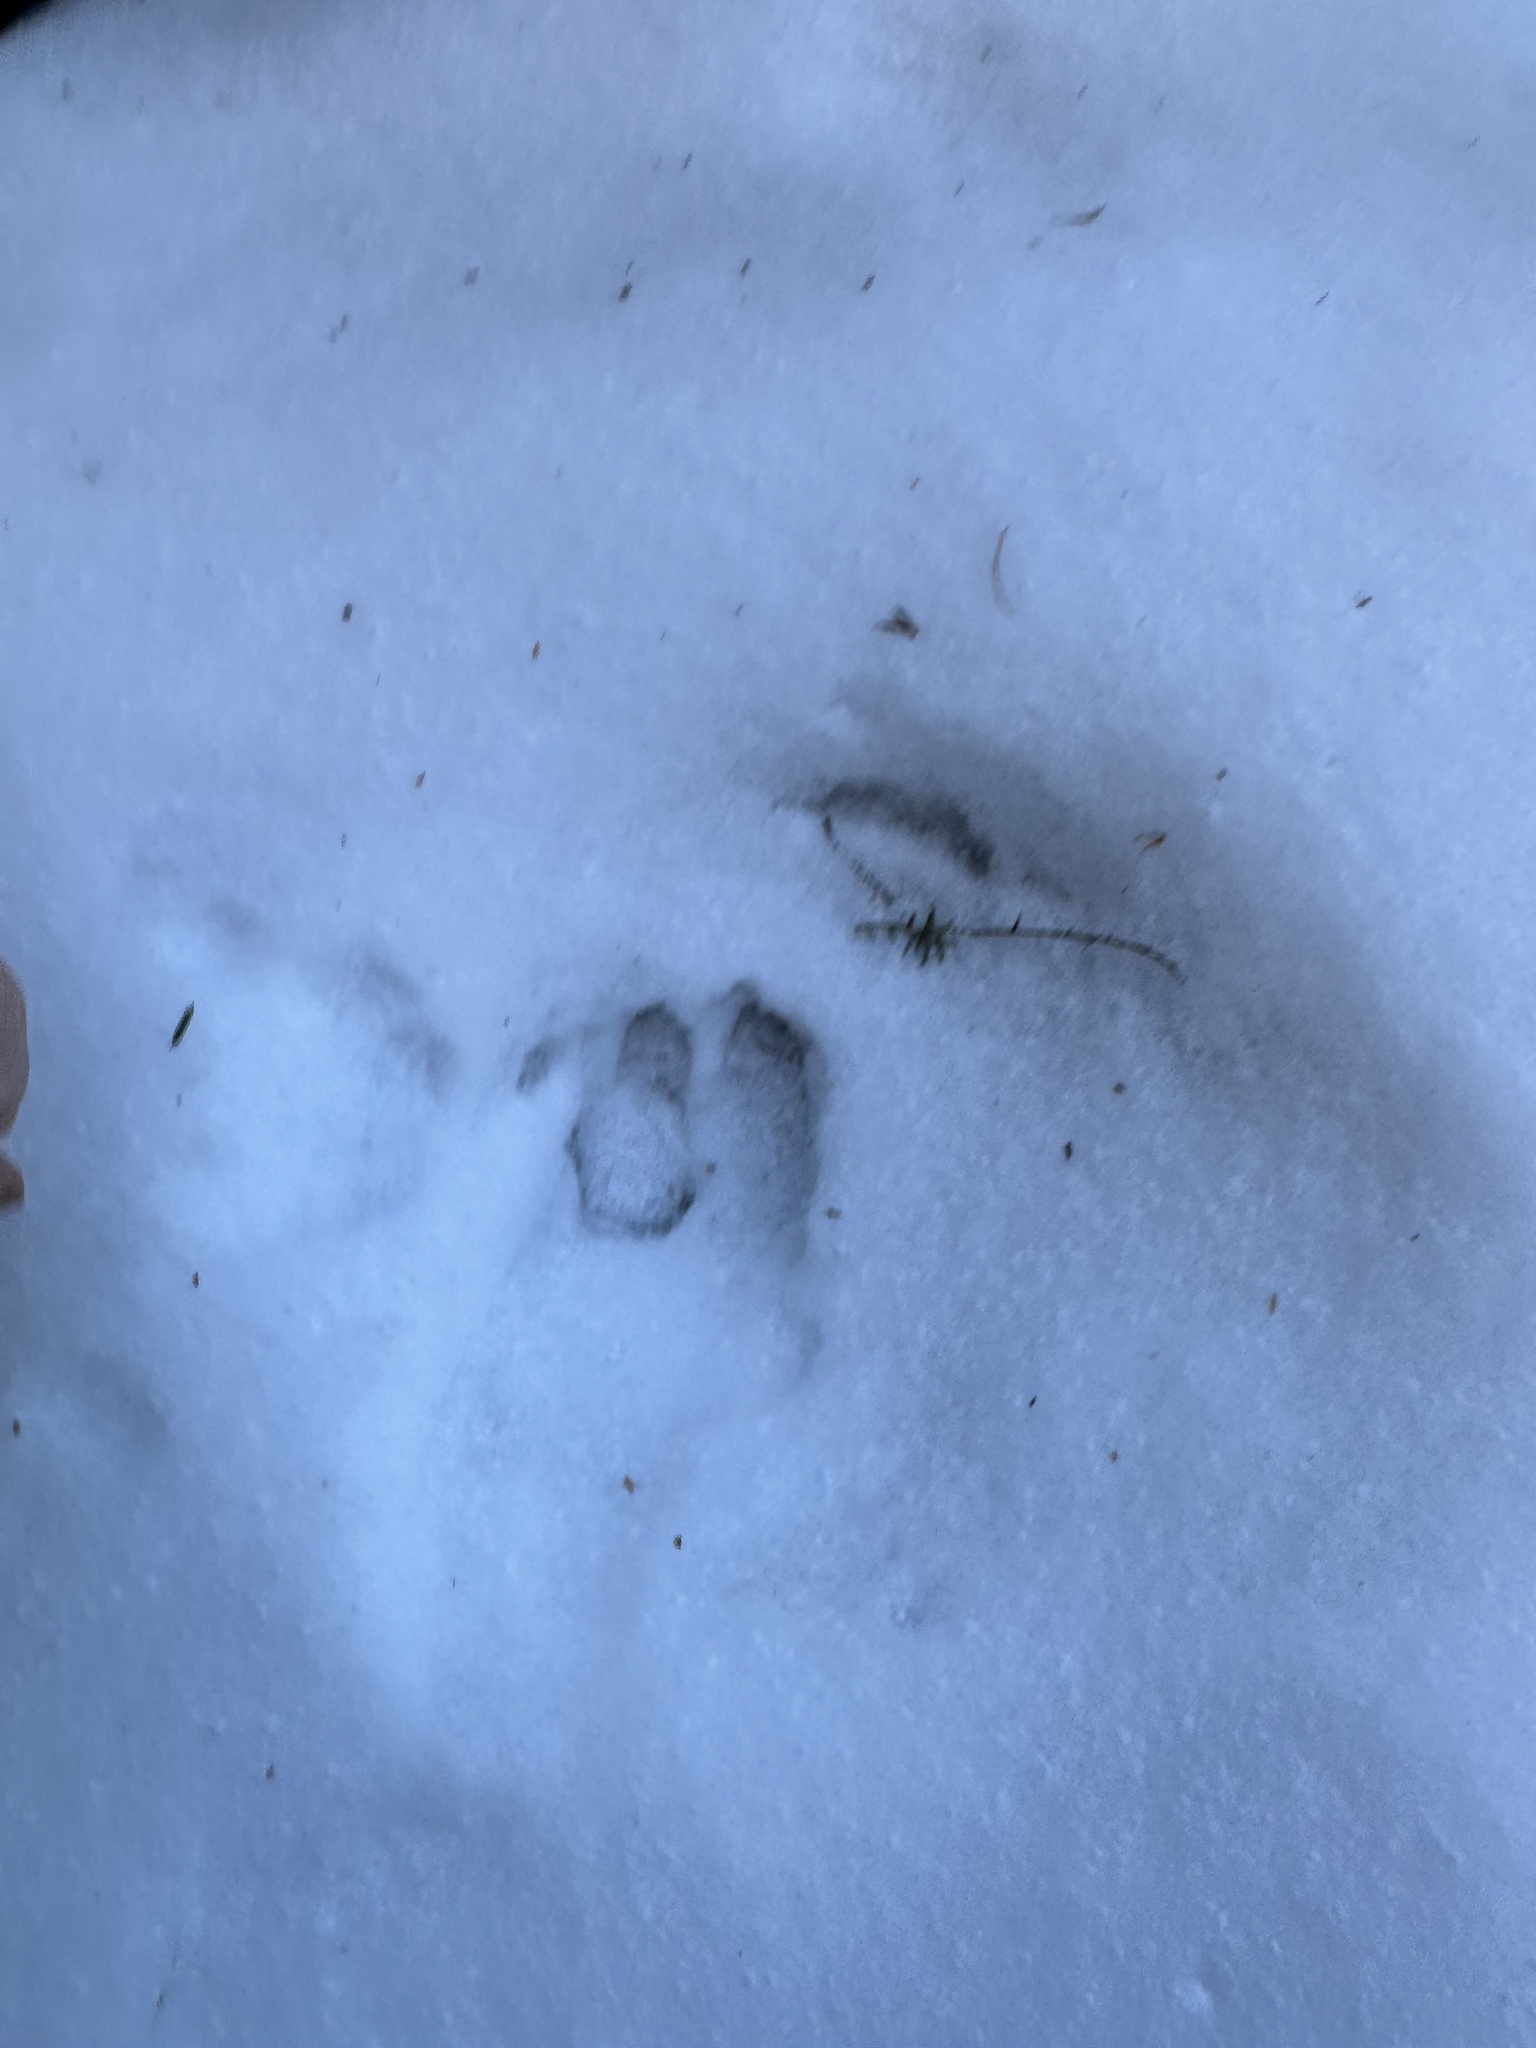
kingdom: Animalia
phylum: Chordata
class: Mammalia
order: Artiodactyla
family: Cervidae
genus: Odocoileus
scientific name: Odocoileus virginianus
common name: White-tailed deer
